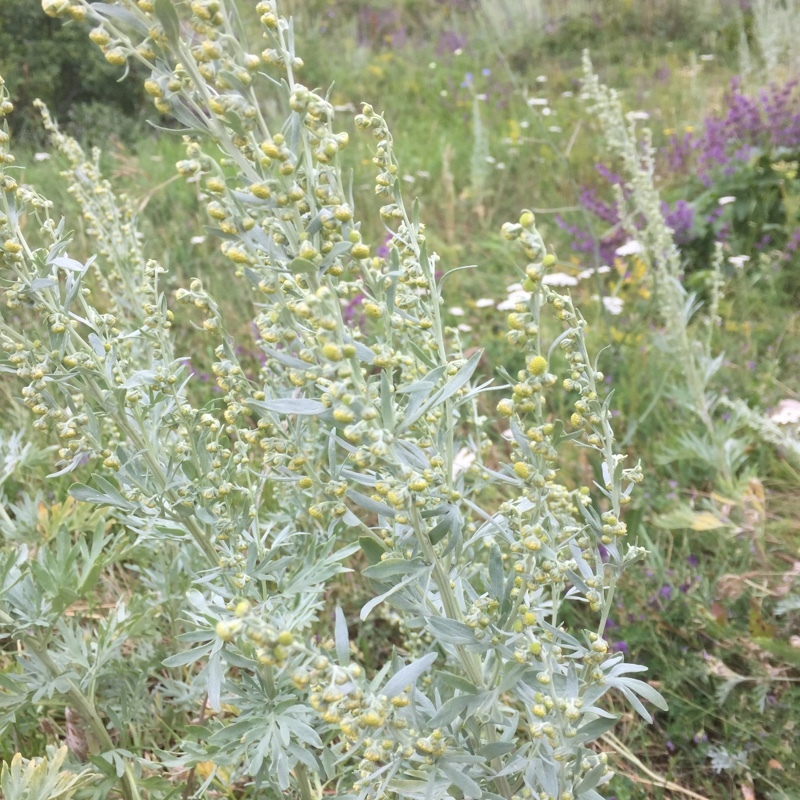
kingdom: Plantae
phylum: Tracheophyta
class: Magnoliopsida
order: Asterales
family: Asteraceae
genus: Artemisia
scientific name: Artemisia absinthium
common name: Wormwood
